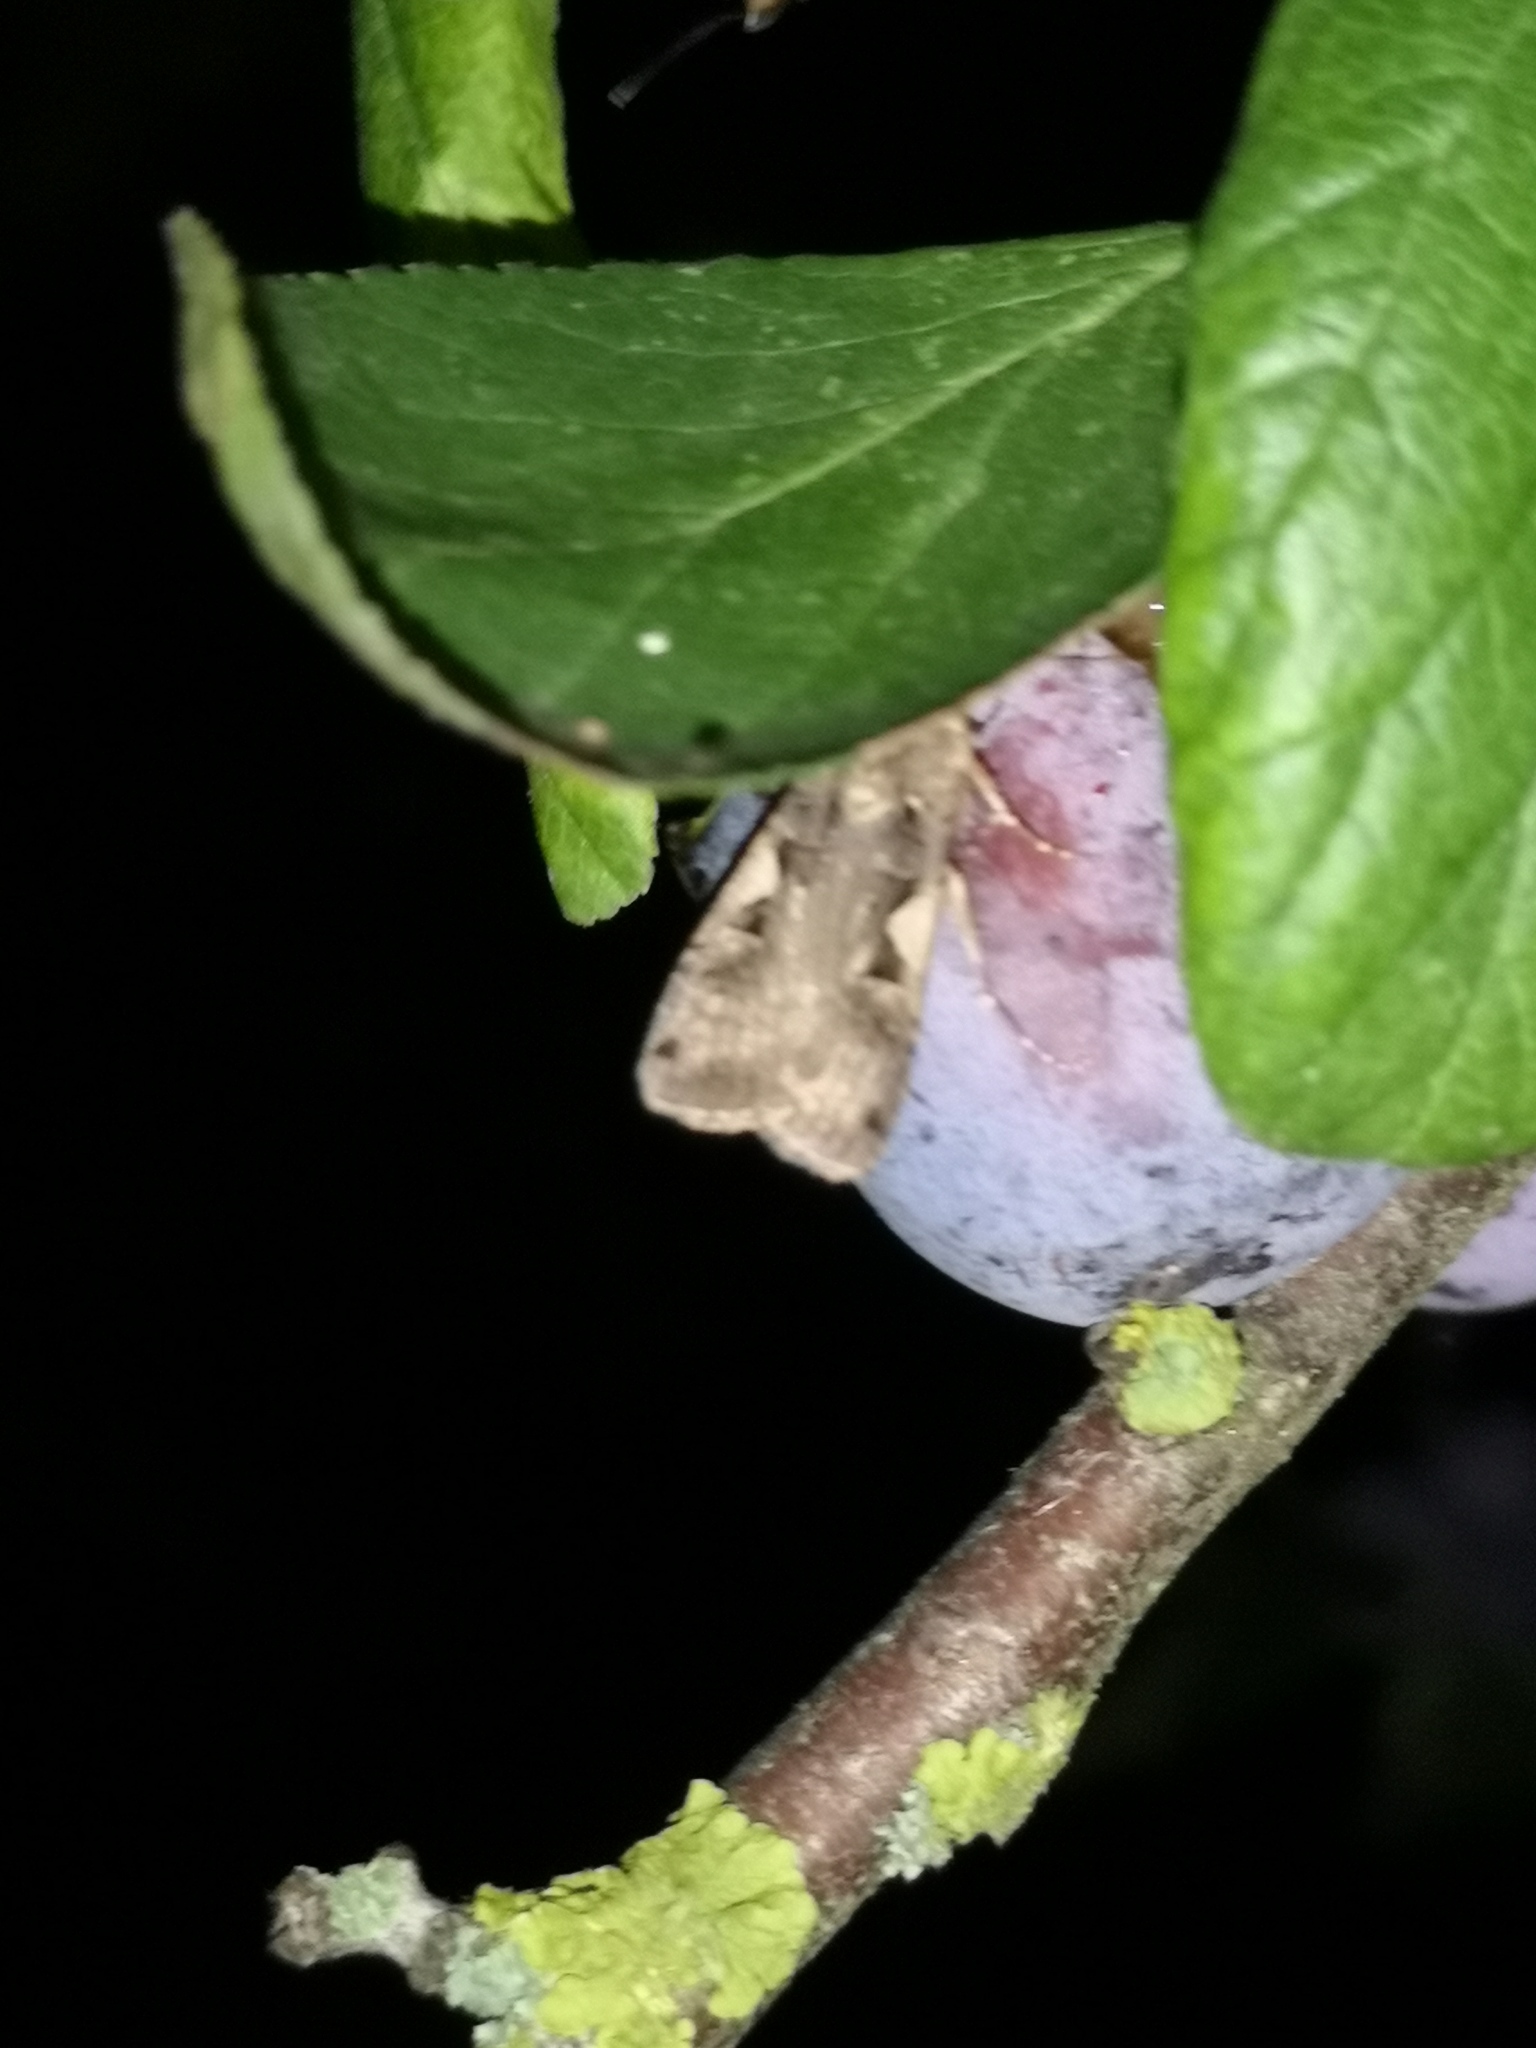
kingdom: Animalia
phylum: Arthropoda
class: Insecta
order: Lepidoptera
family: Noctuidae
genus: Xestia
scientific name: Xestia c-nigrum
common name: Setaceous hebrew character
